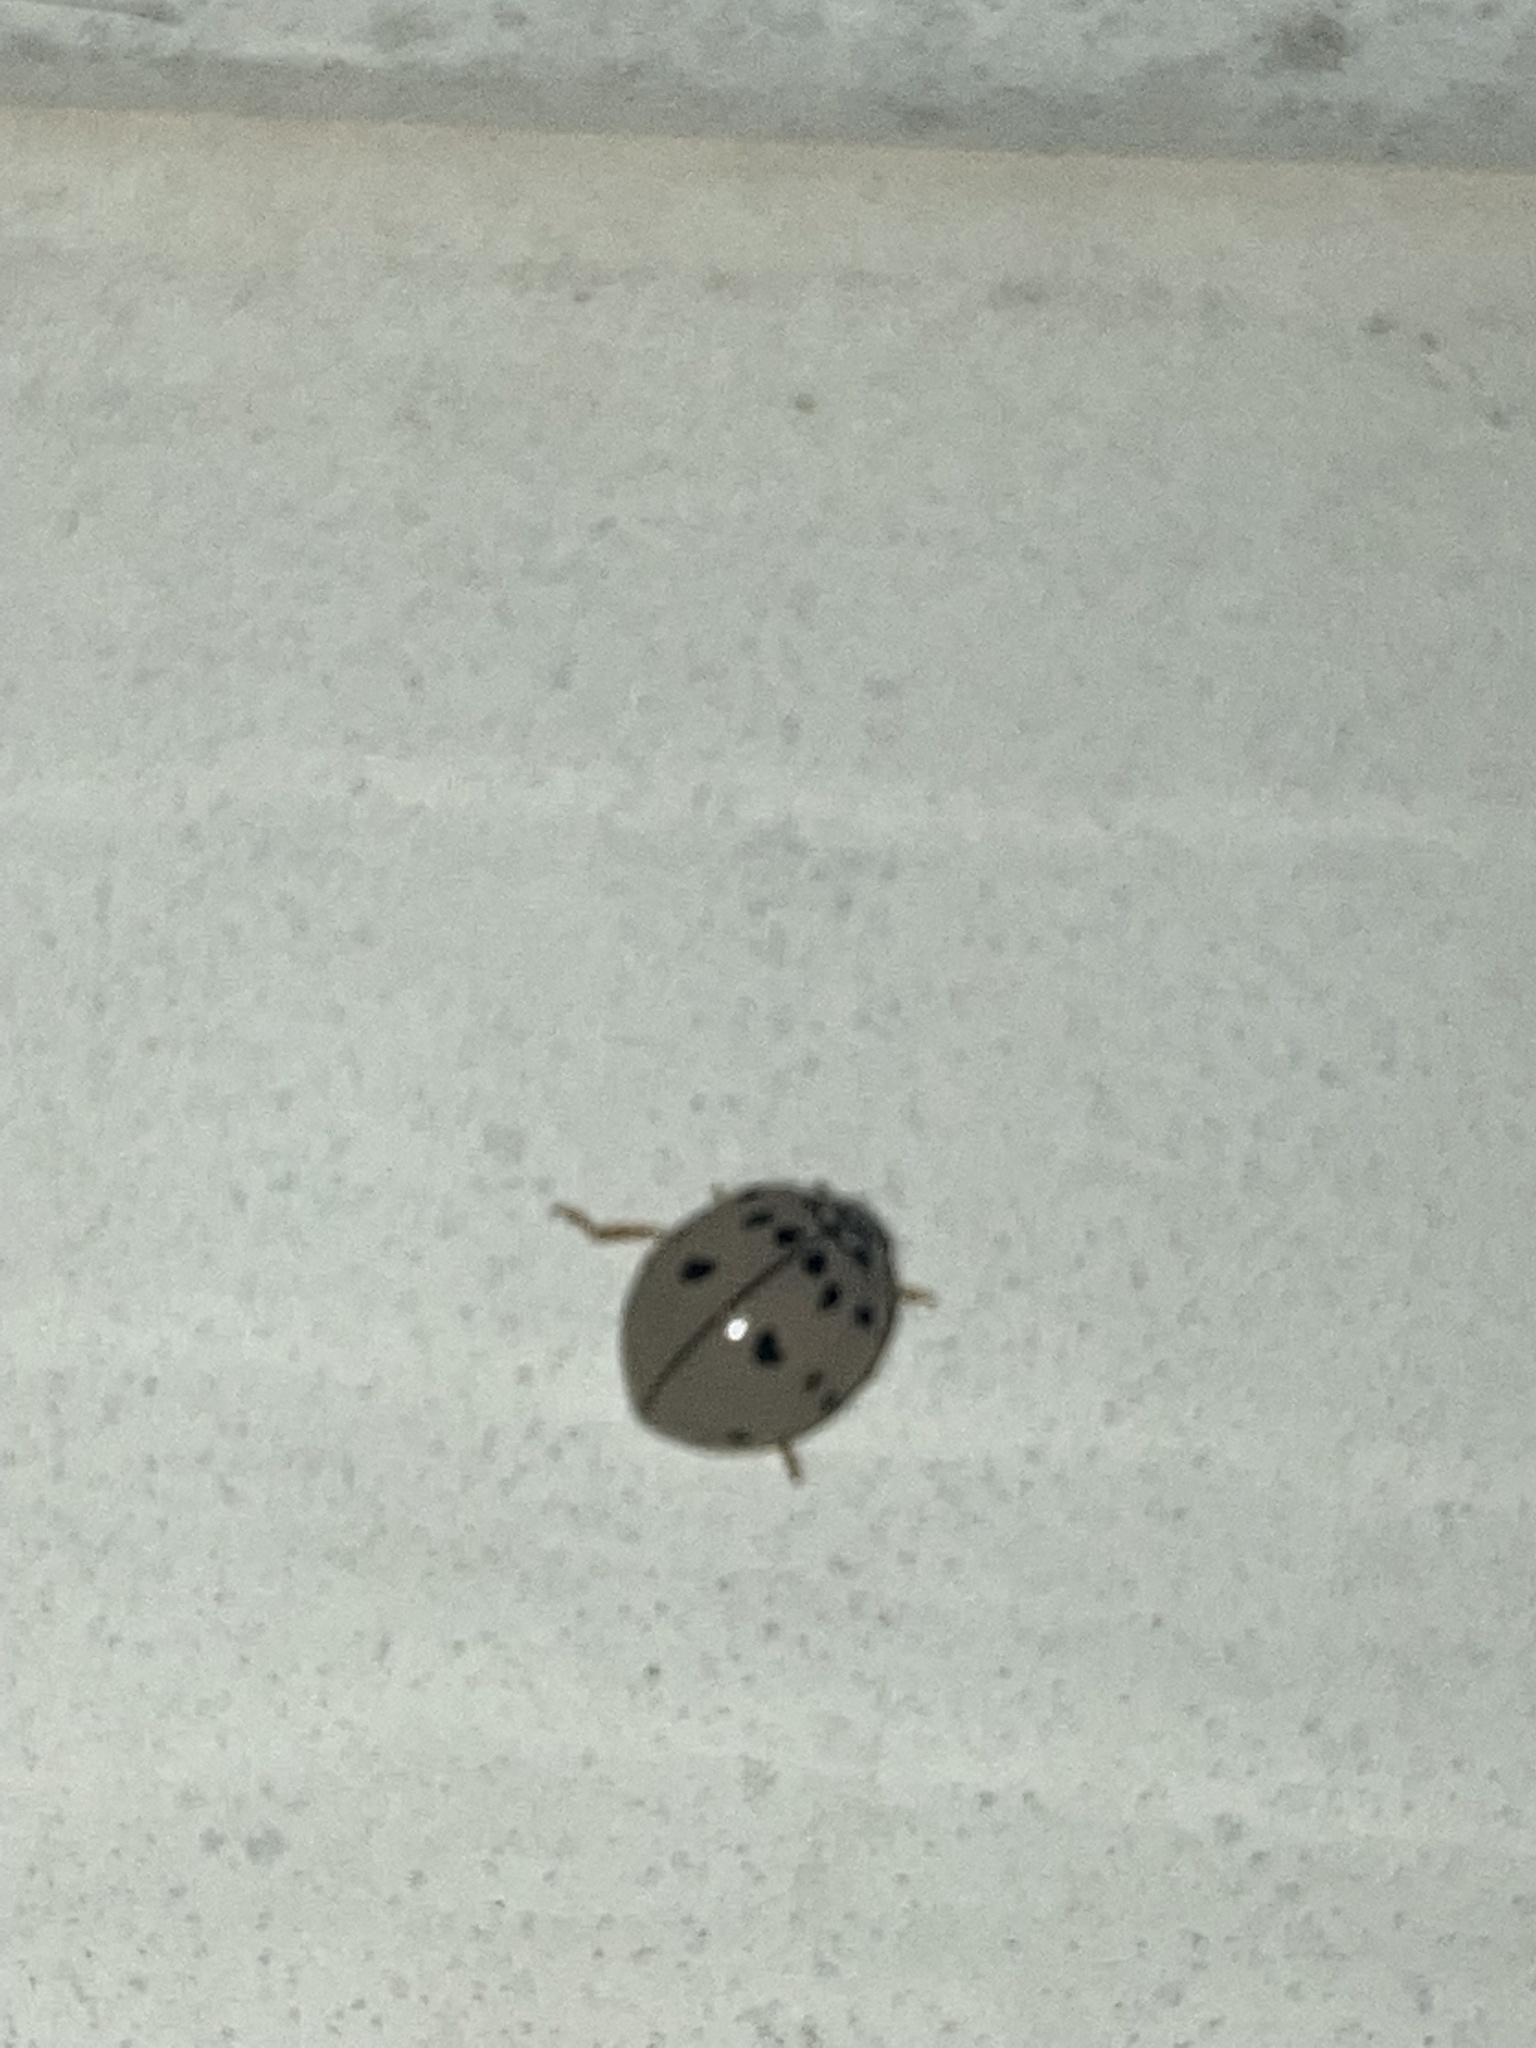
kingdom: Animalia
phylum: Arthropoda
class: Insecta
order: Coleoptera
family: Coccinellidae
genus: Olla
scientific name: Olla v-nigrum
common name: Ashy gray lady beetle
